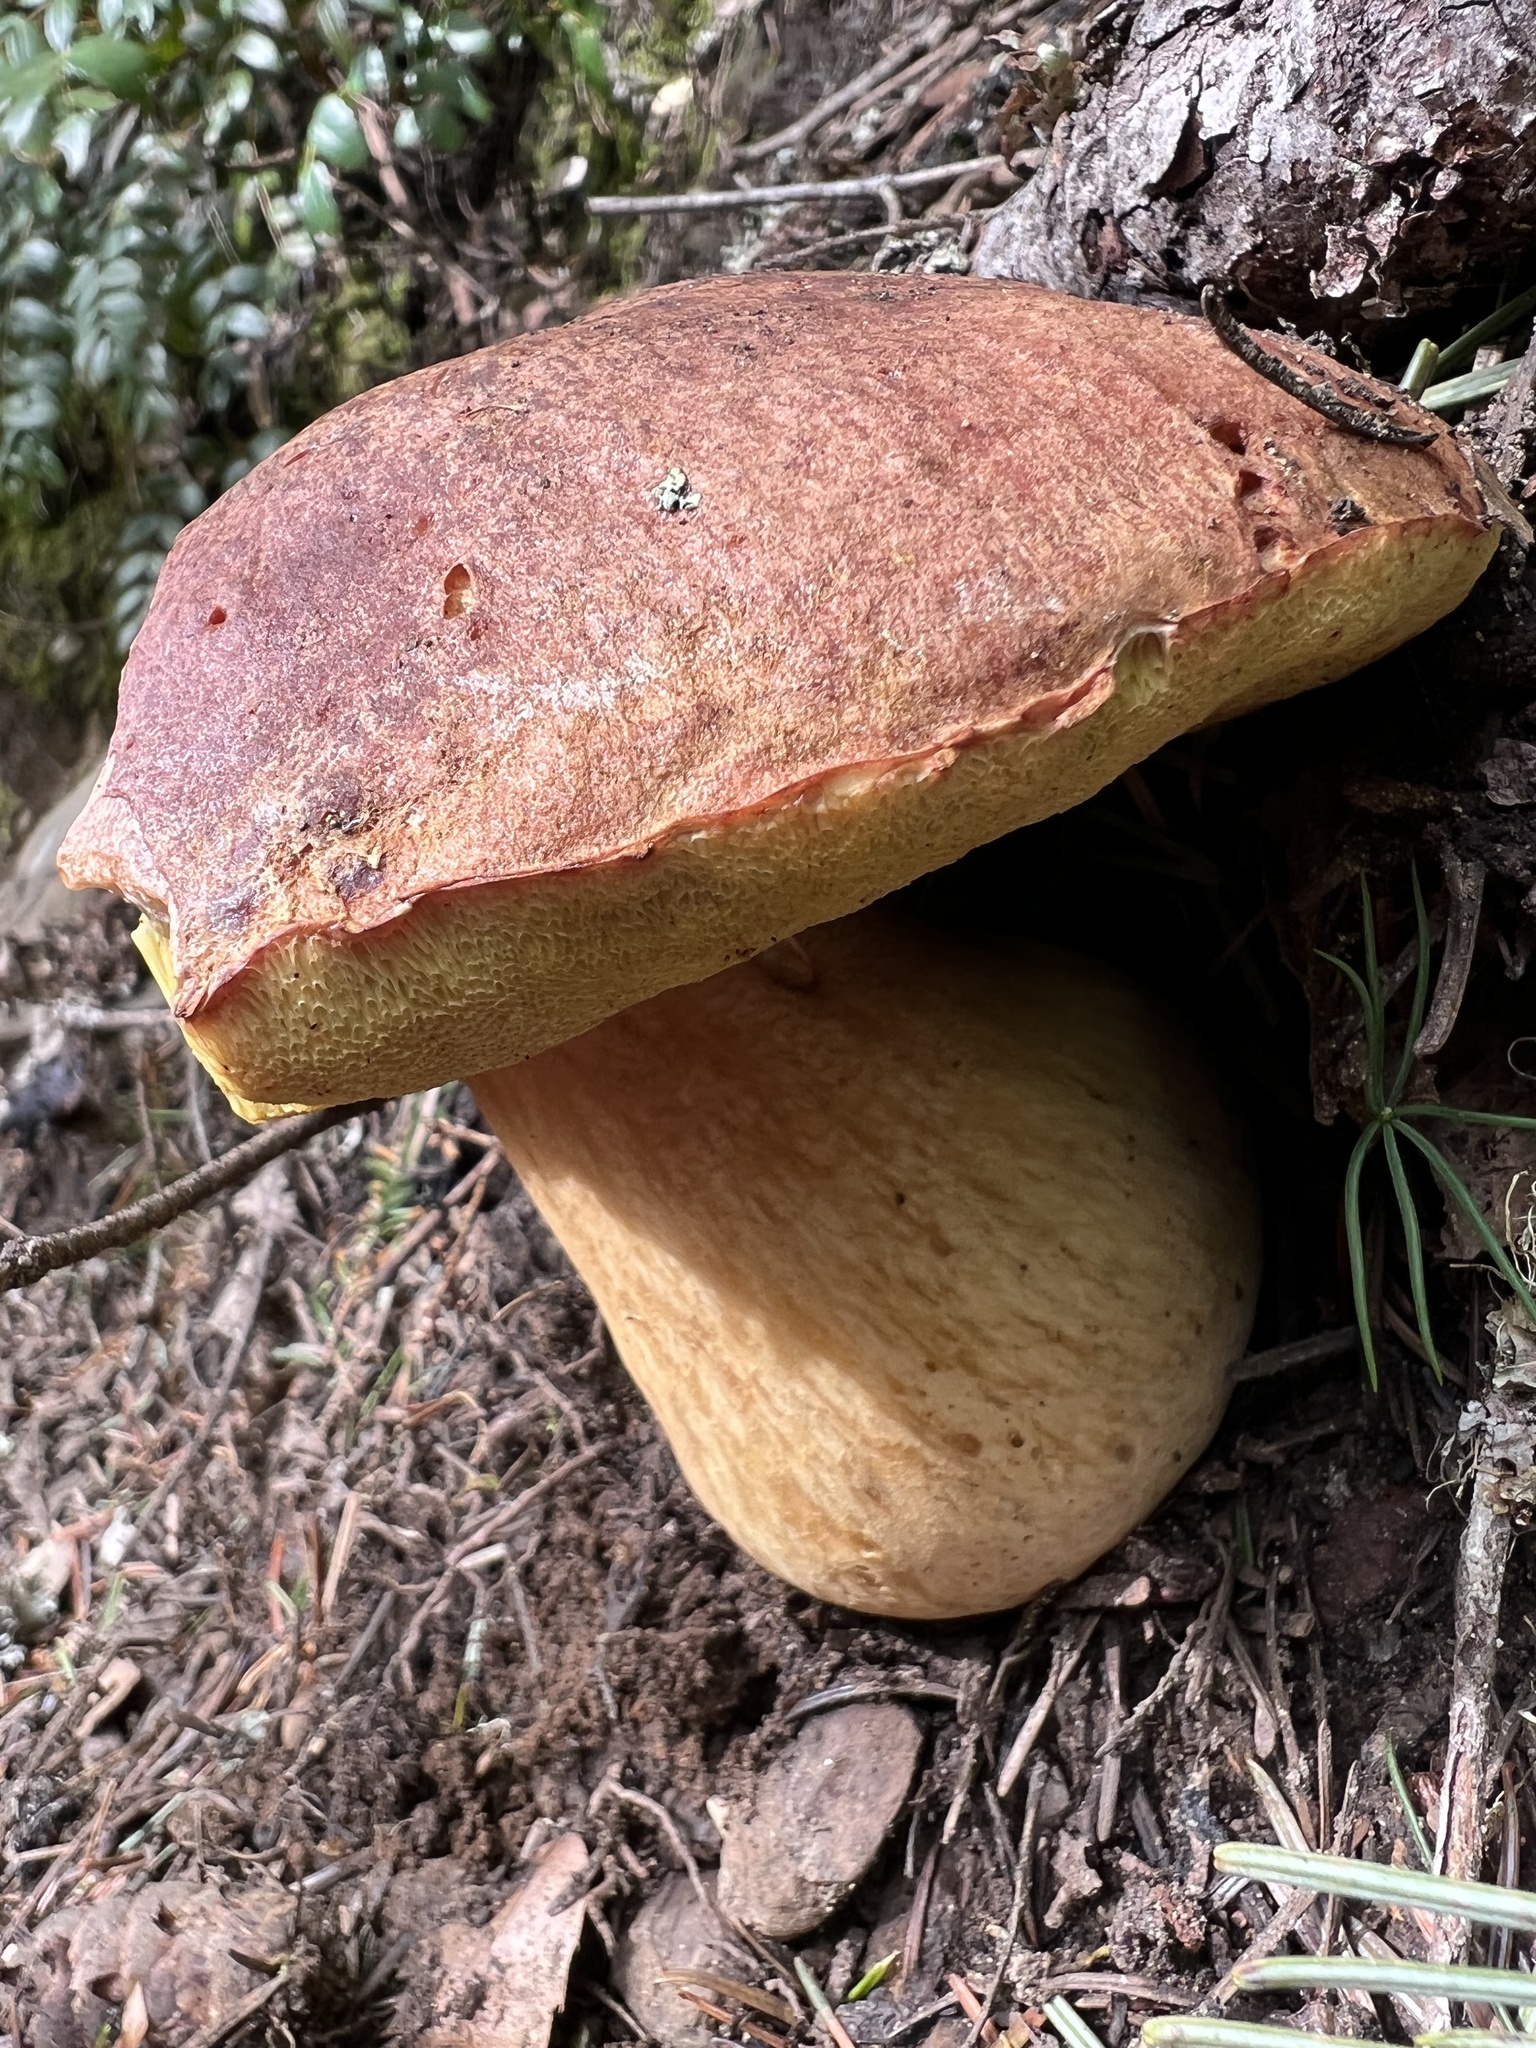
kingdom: Fungi
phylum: Basidiomycota
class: Agaricomycetes
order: Boletales
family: Boletaceae
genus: Boletus
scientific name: Boletus rex-veris
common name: Spring king
